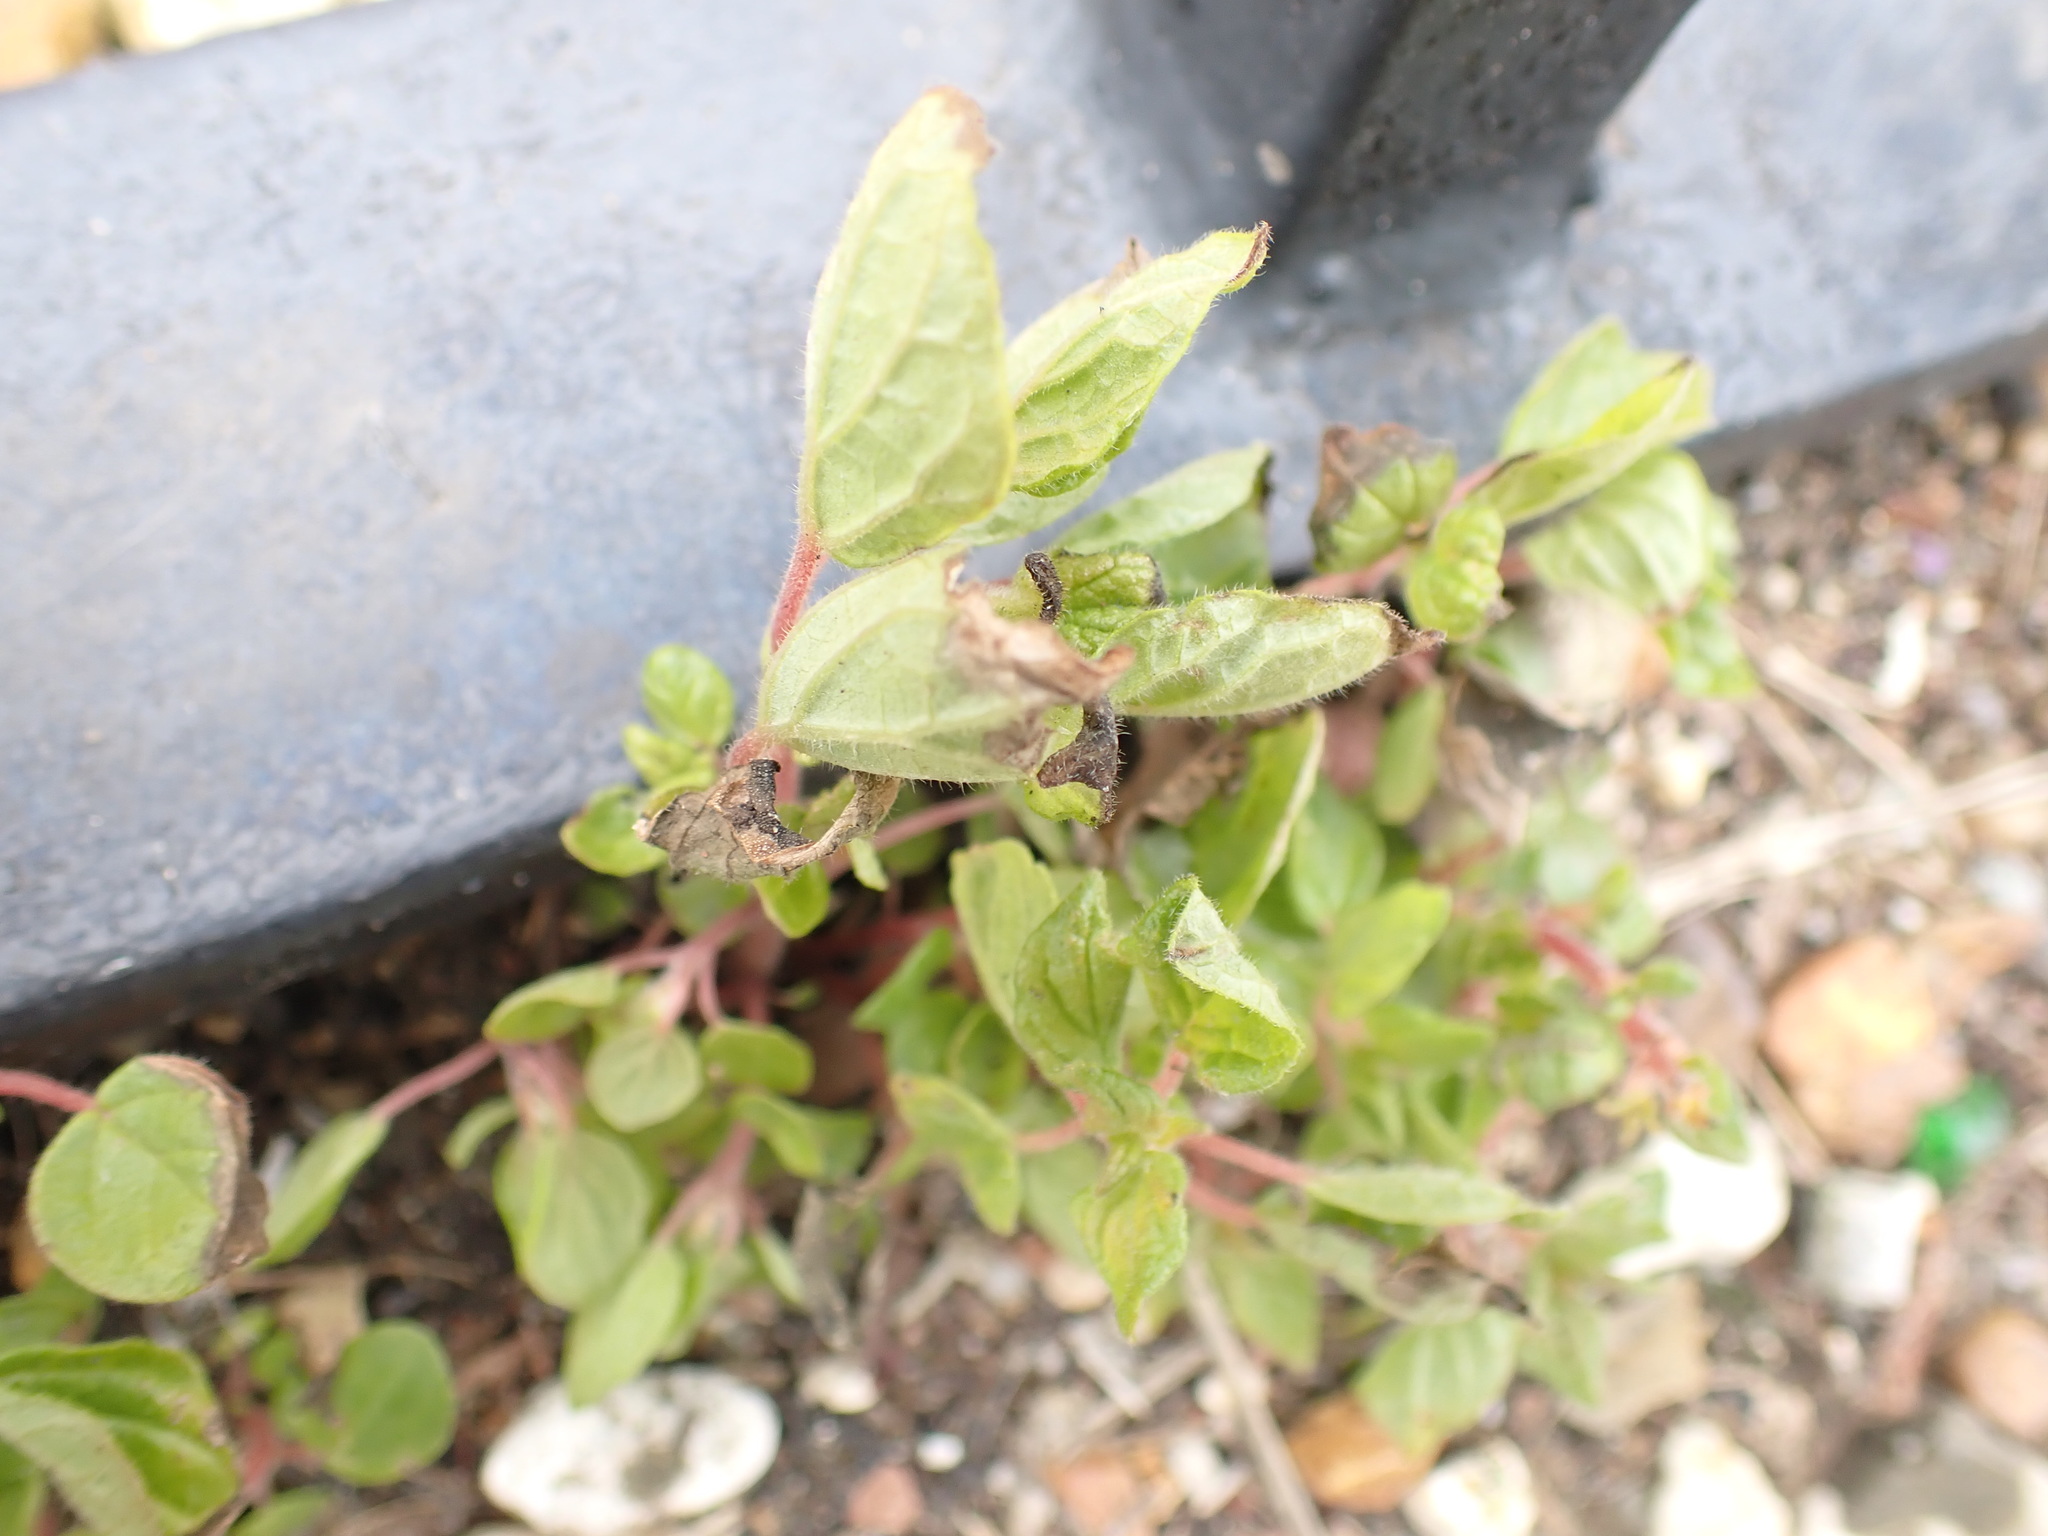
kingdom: Plantae
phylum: Tracheophyta
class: Magnoliopsida
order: Rosales
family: Urticaceae
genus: Parietaria
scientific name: Parietaria judaica
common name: Pellitory-of-the-wall
